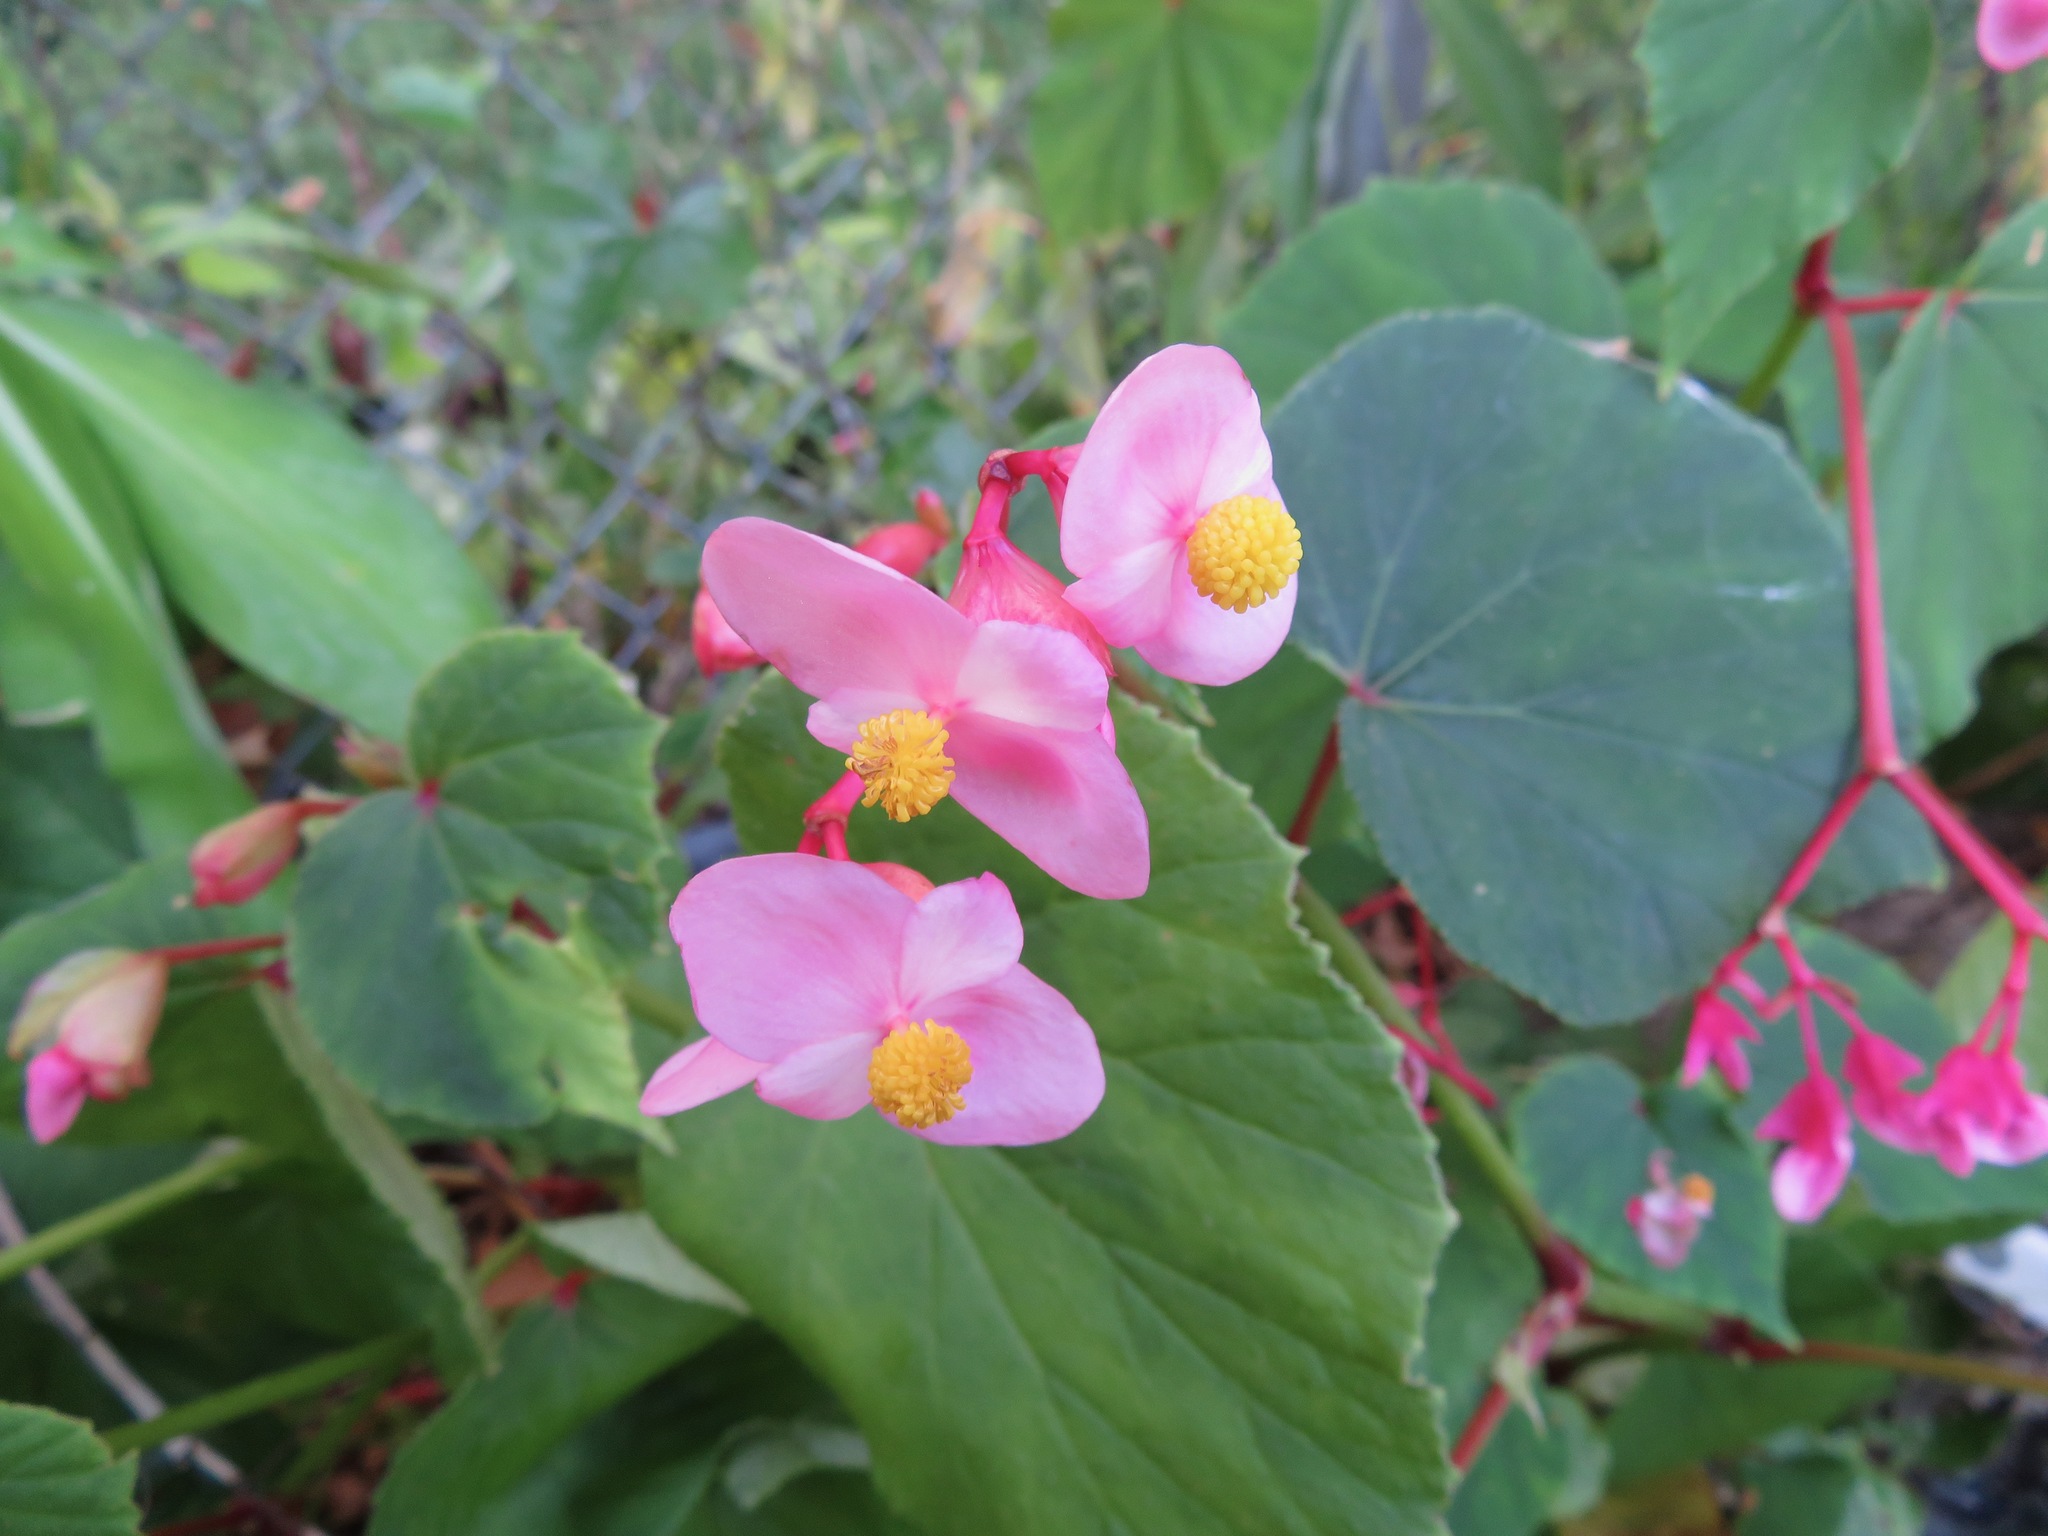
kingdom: Plantae
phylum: Tracheophyta
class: Magnoliopsida
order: Cucurbitales
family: Begoniaceae
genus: Begonia
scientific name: Begonia grandis
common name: Hardy begonia
